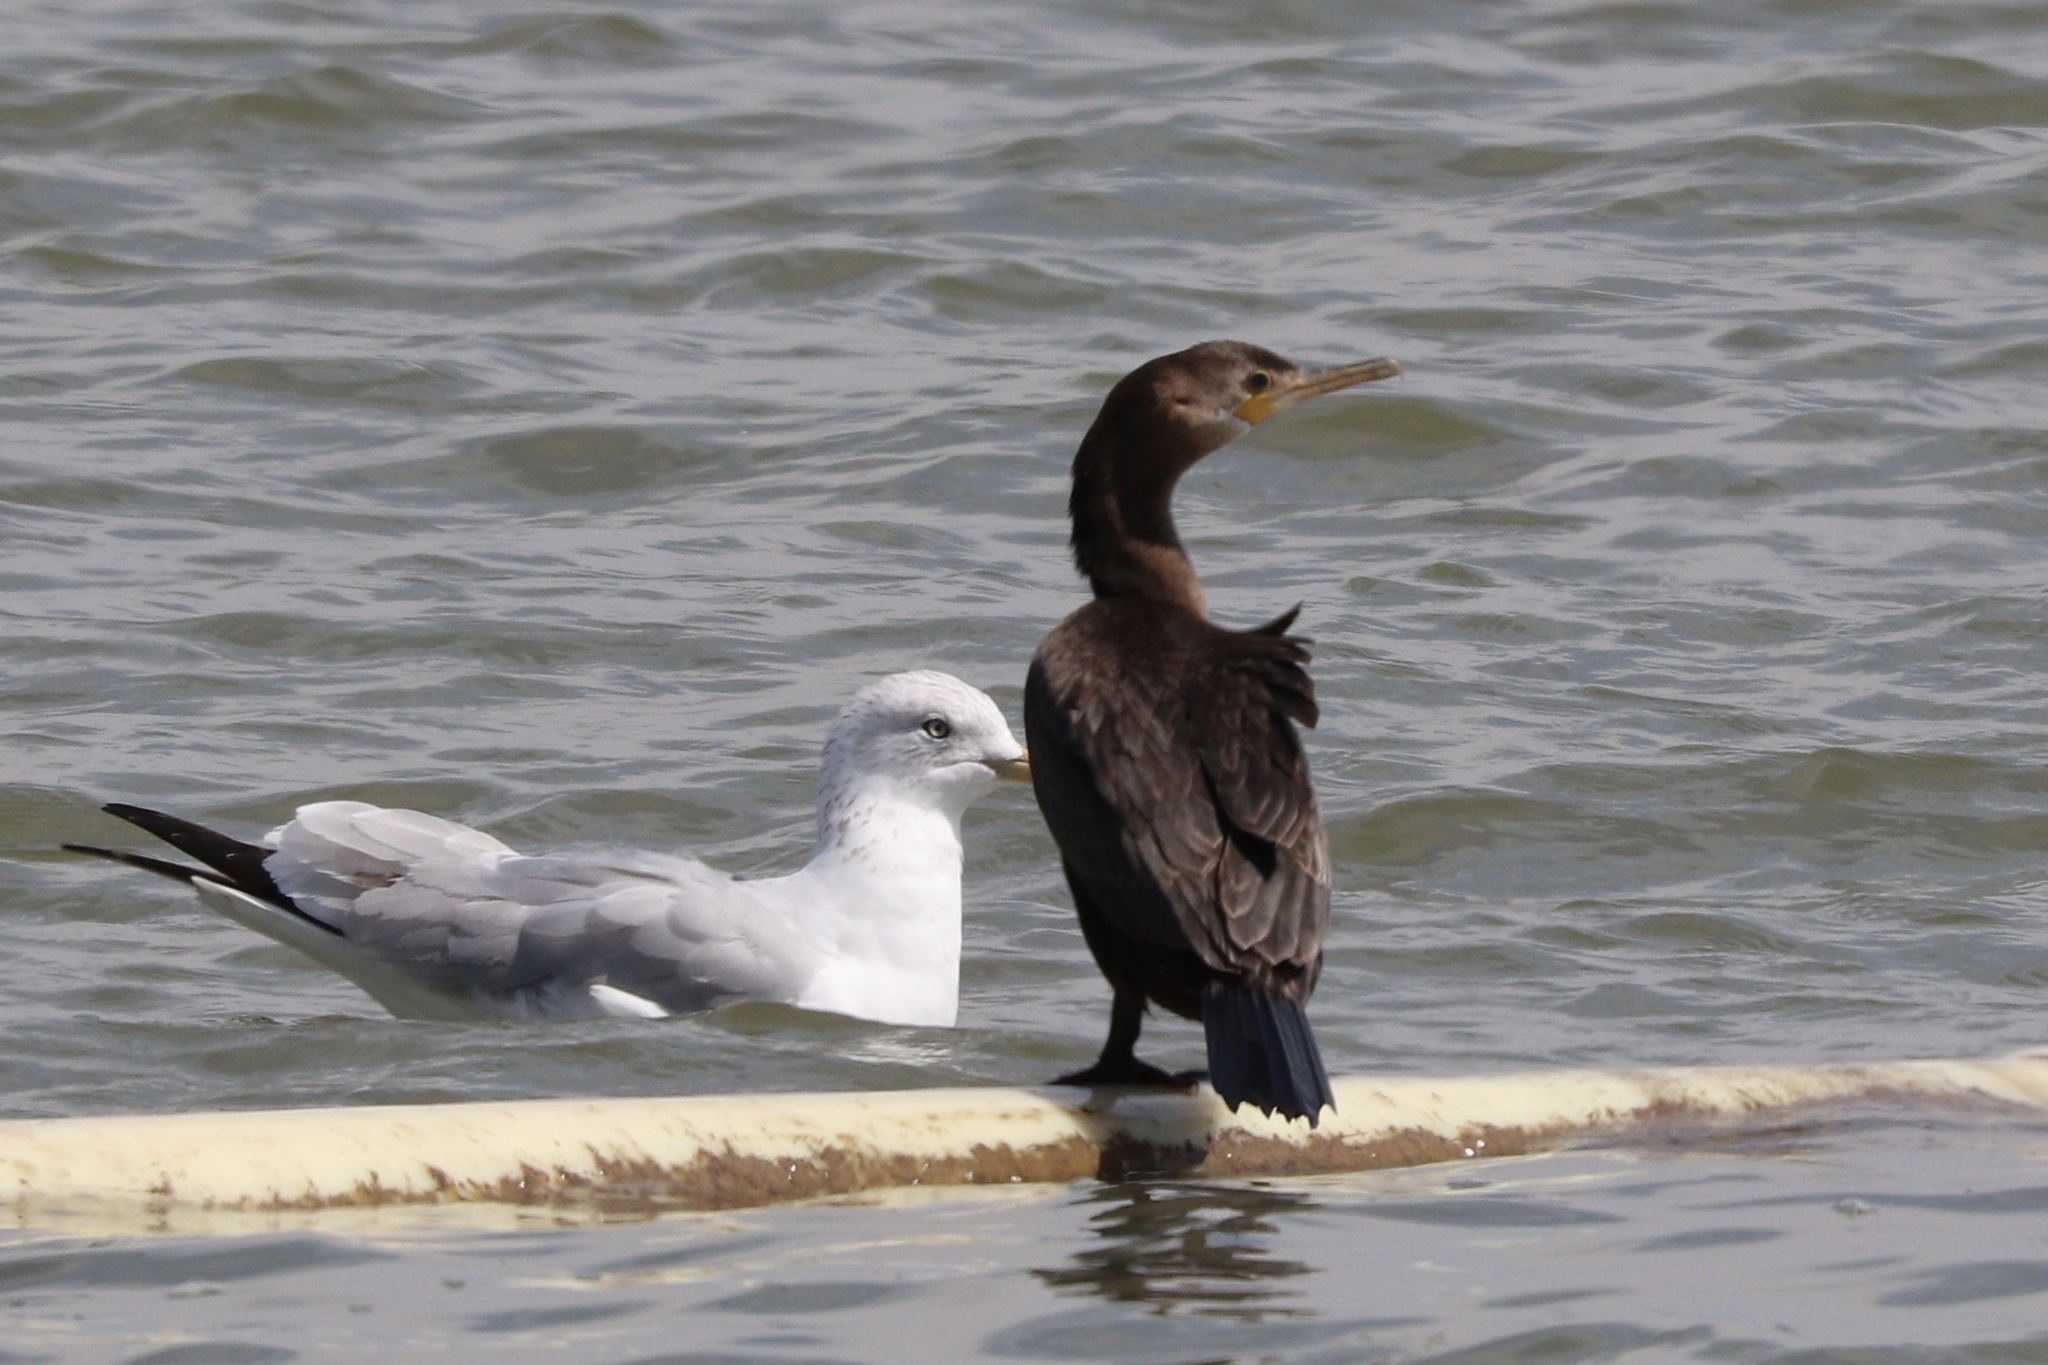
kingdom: Animalia
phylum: Chordata
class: Aves
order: Suliformes
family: Phalacrocoracidae
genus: Phalacrocorax
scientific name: Phalacrocorax brasilianus
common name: Neotropic cormorant
